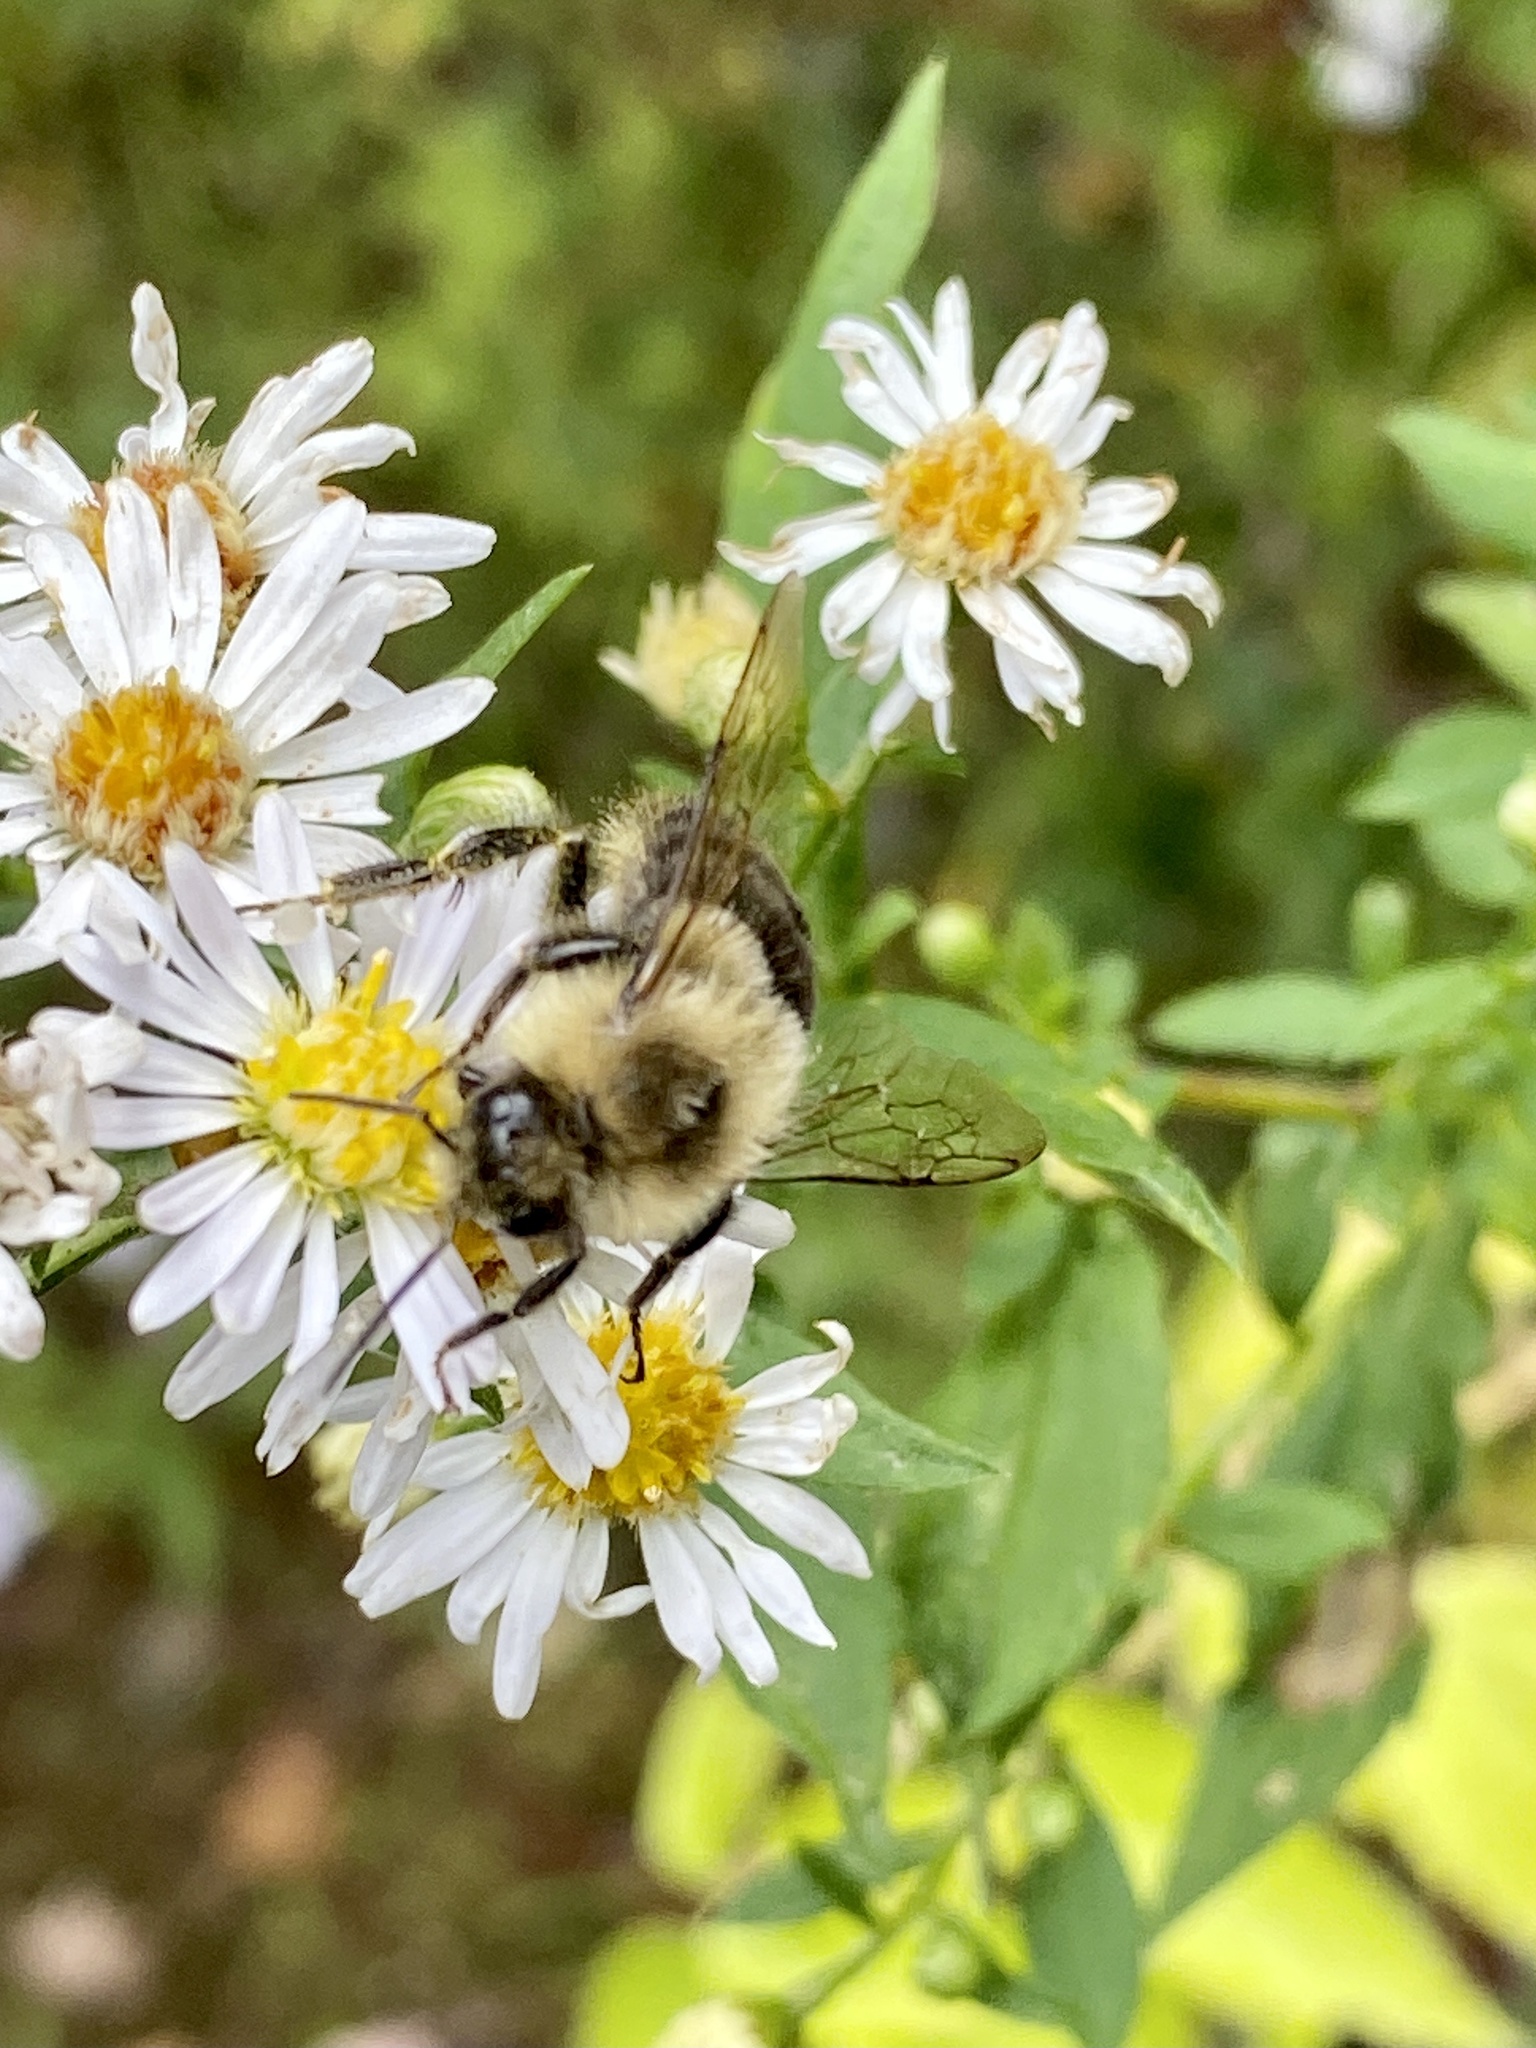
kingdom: Animalia
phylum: Arthropoda
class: Insecta
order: Hymenoptera
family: Apidae
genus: Bombus
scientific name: Bombus impatiens
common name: Common eastern bumble bee
